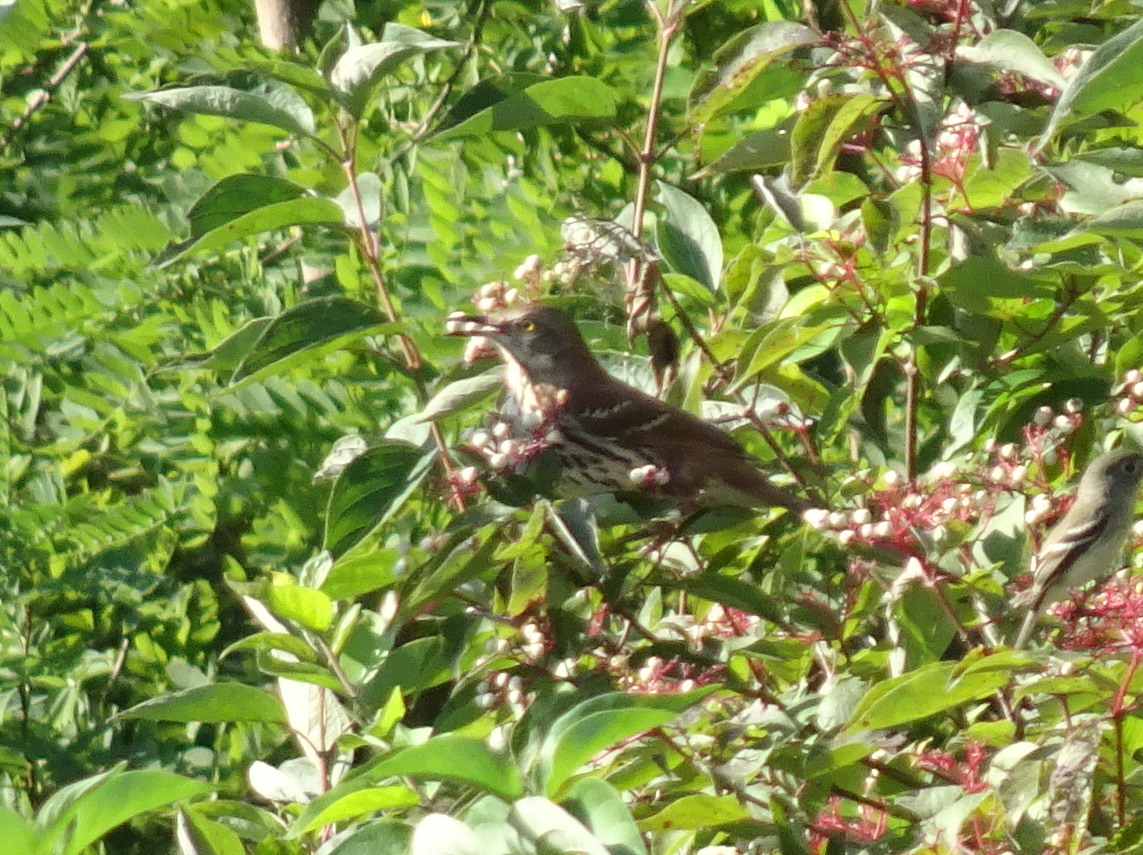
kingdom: Animalia
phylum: Chordata
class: Aves
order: Passeriformes
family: Mimidae
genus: Toxostoma
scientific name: Toxostoma rufum
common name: Brown thrasher
